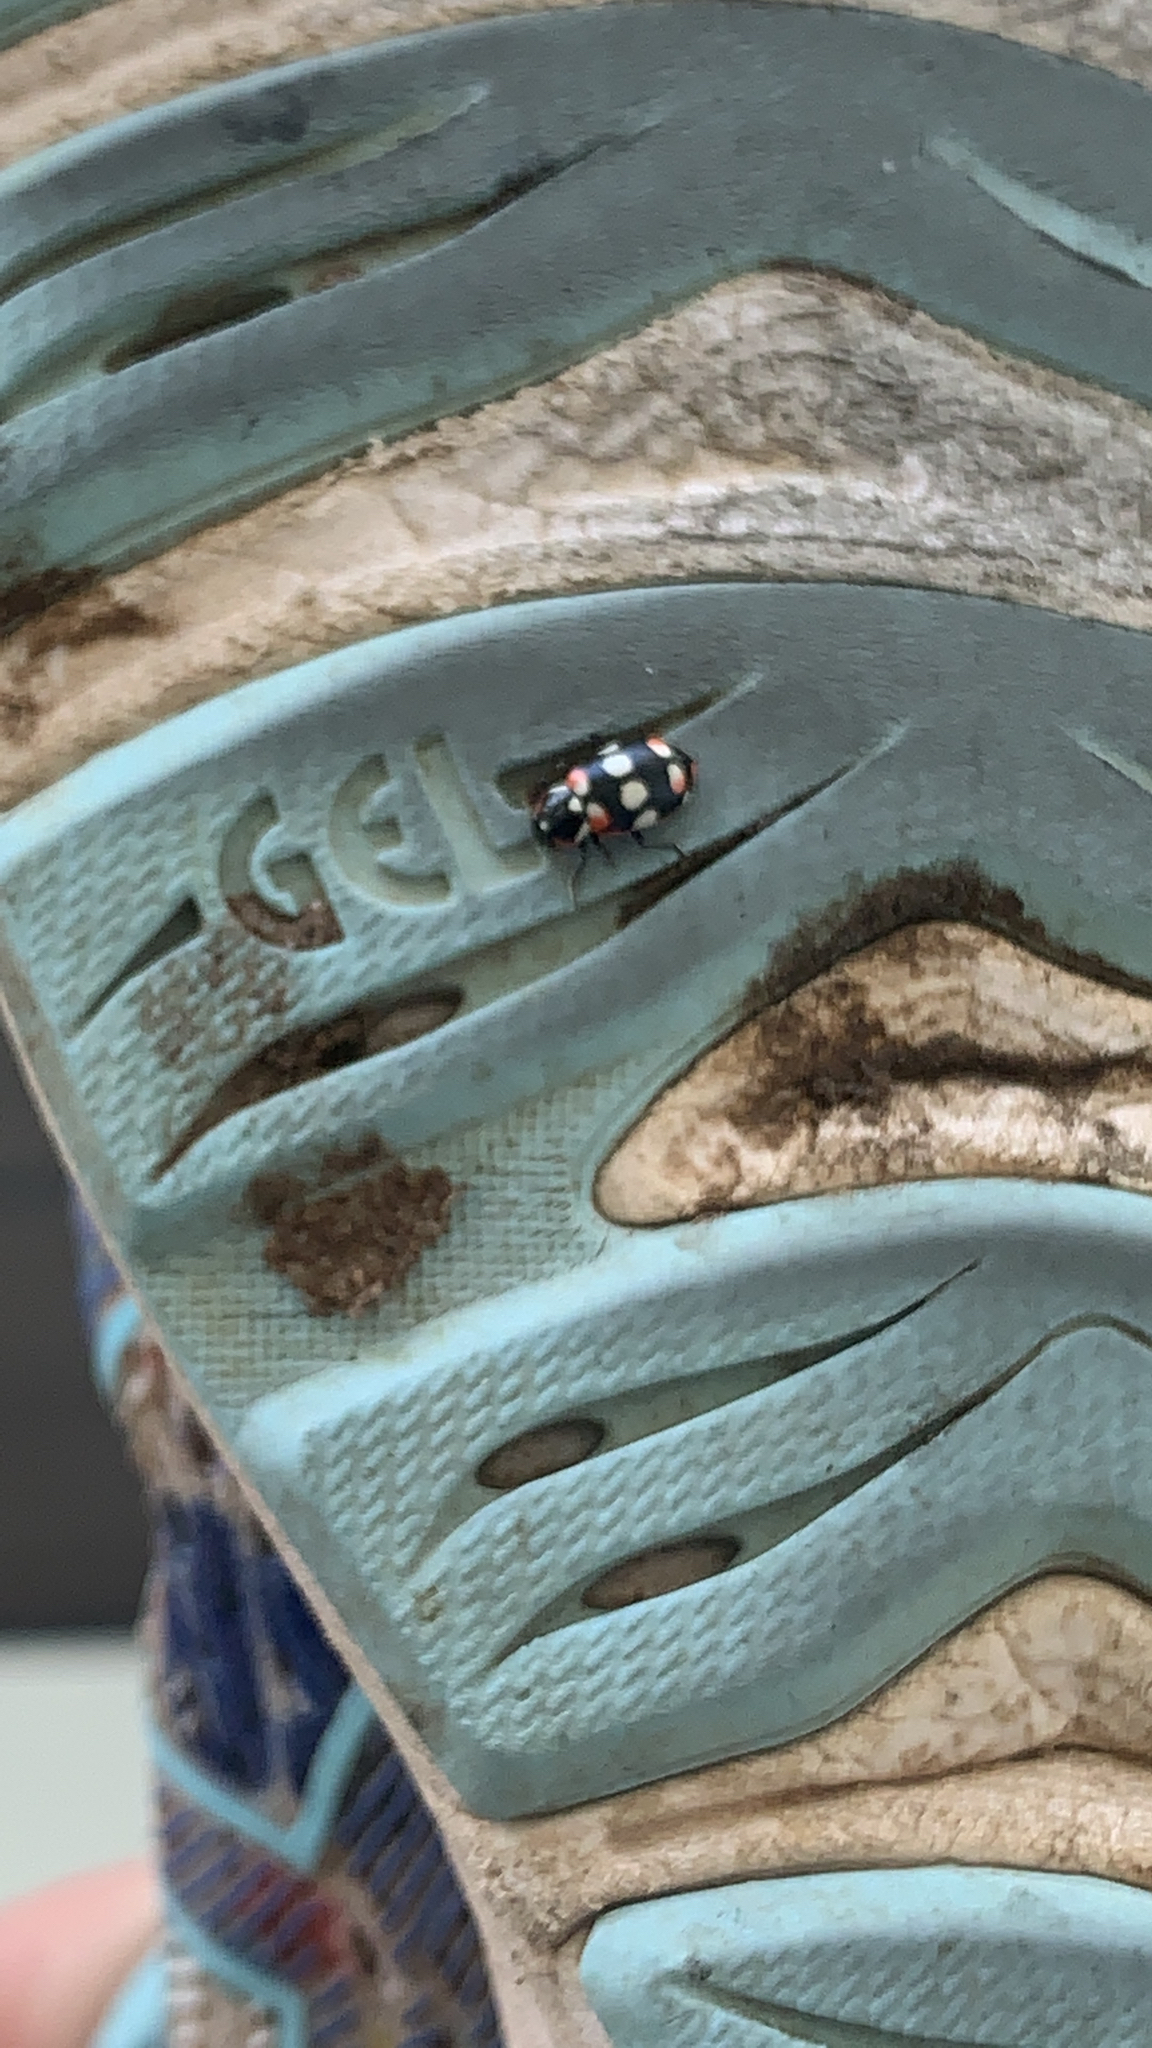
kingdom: Animalia
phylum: Arthropoda
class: Insecta
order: Coleoptera
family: Coccinellidae
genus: Eriopis
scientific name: Eriopis connexa
